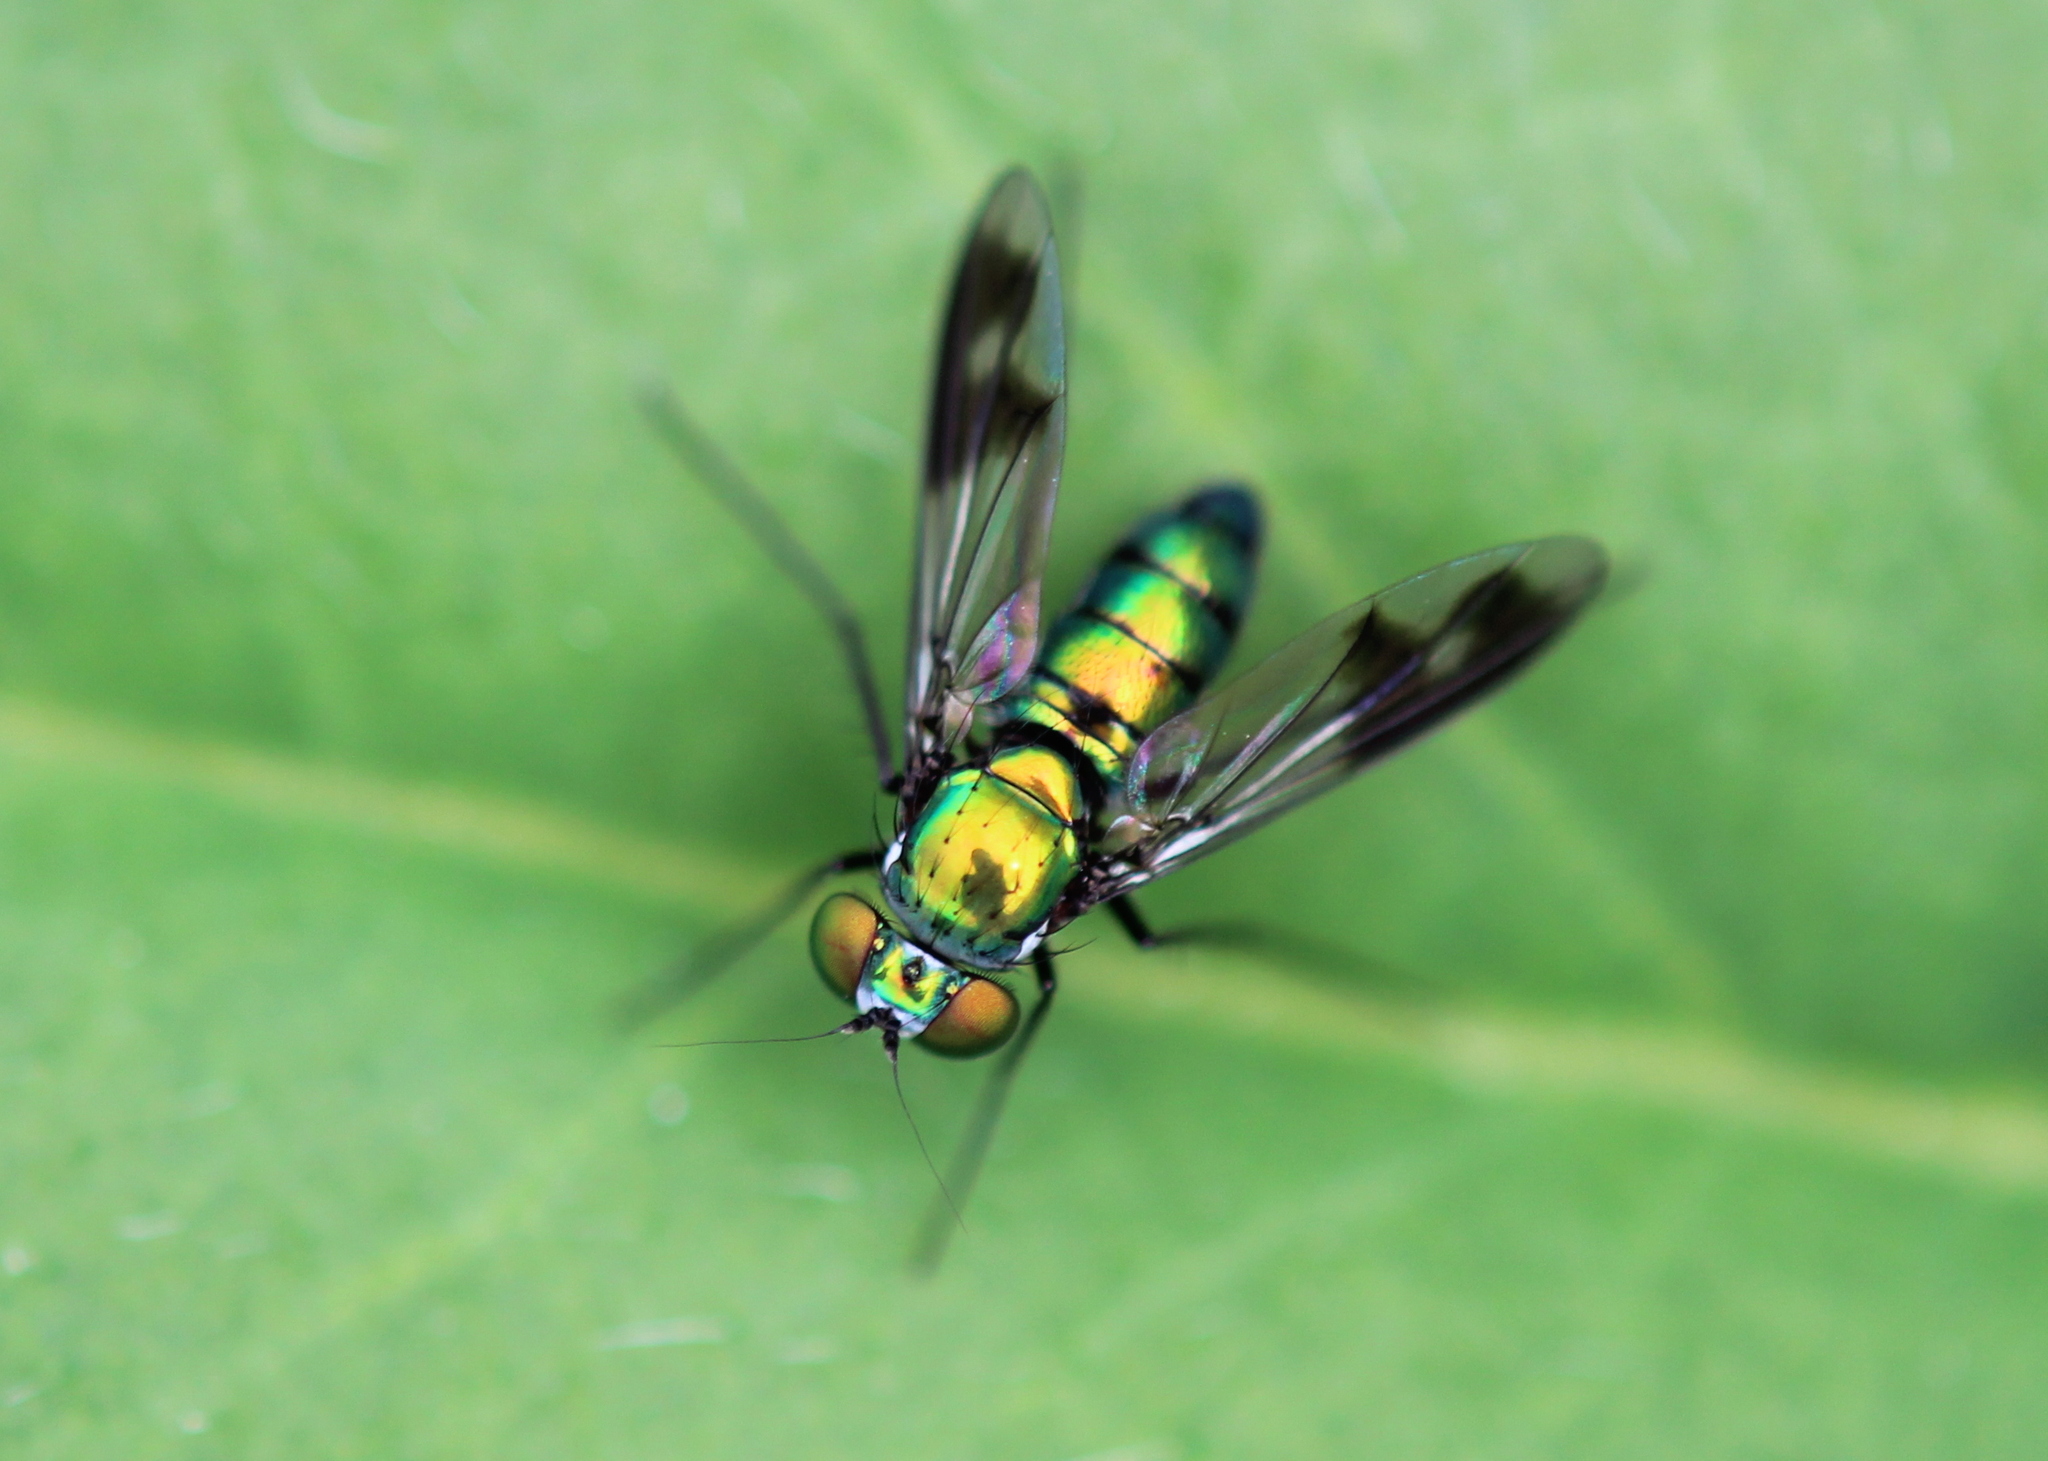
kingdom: Animalia
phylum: Arthropoda
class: Insecta
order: Diptera
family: Dolichopodidae
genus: Condylostylus
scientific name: Condylostylus patibulatus
